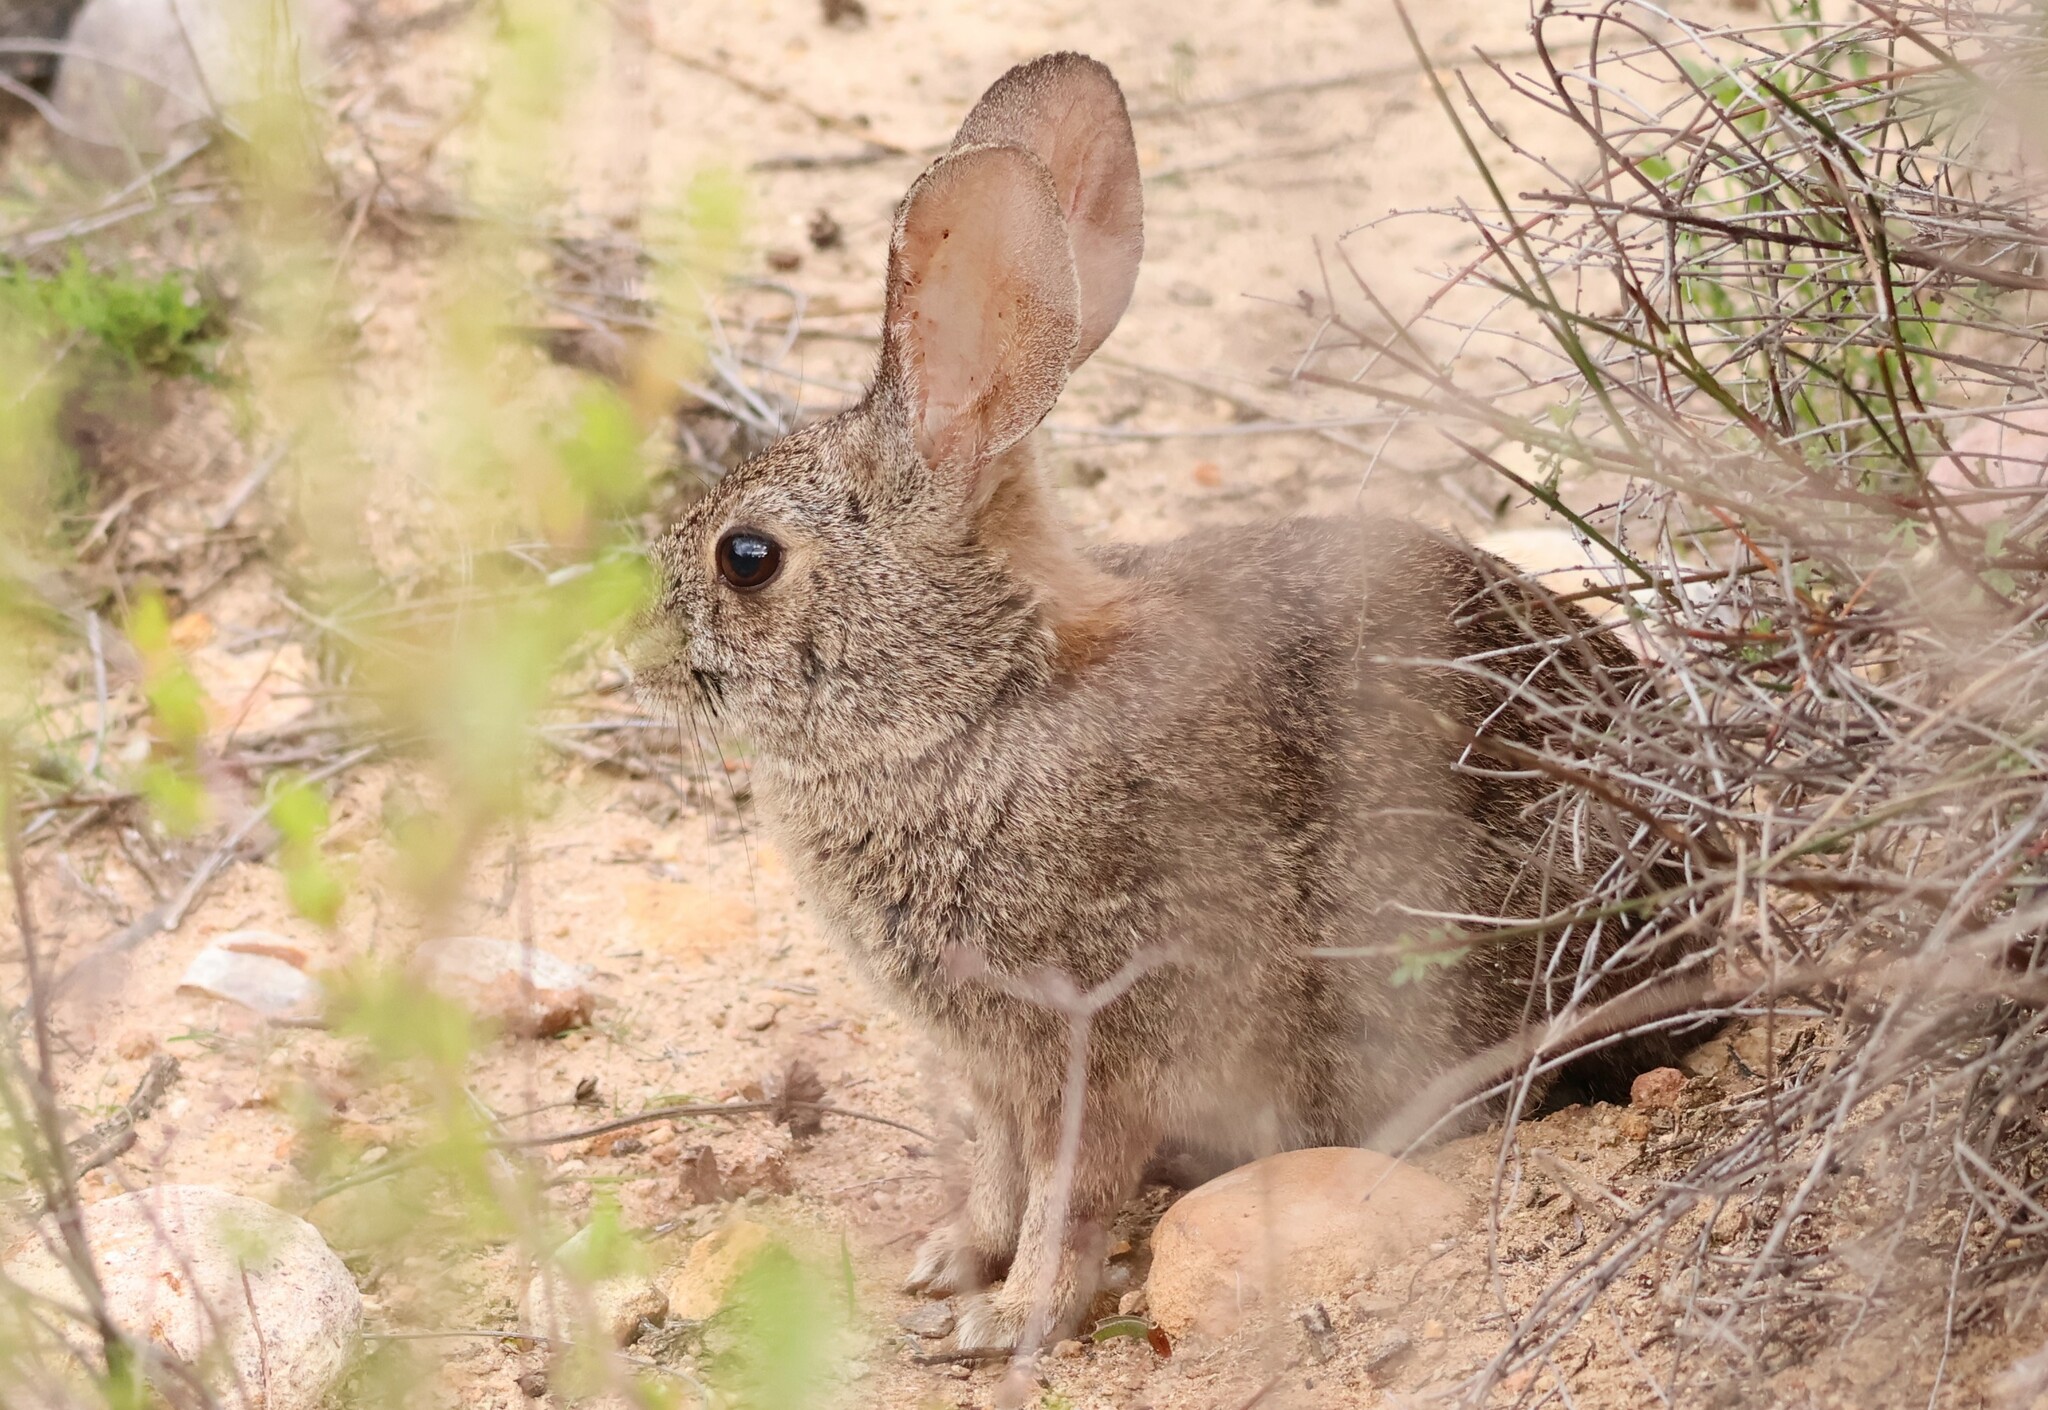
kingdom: Animalia
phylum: Chordata
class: Mammalia
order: Lagomorpha
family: Leporidae
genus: Sylvilagus
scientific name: Sylvilagus bachmani
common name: Brush rabbit
